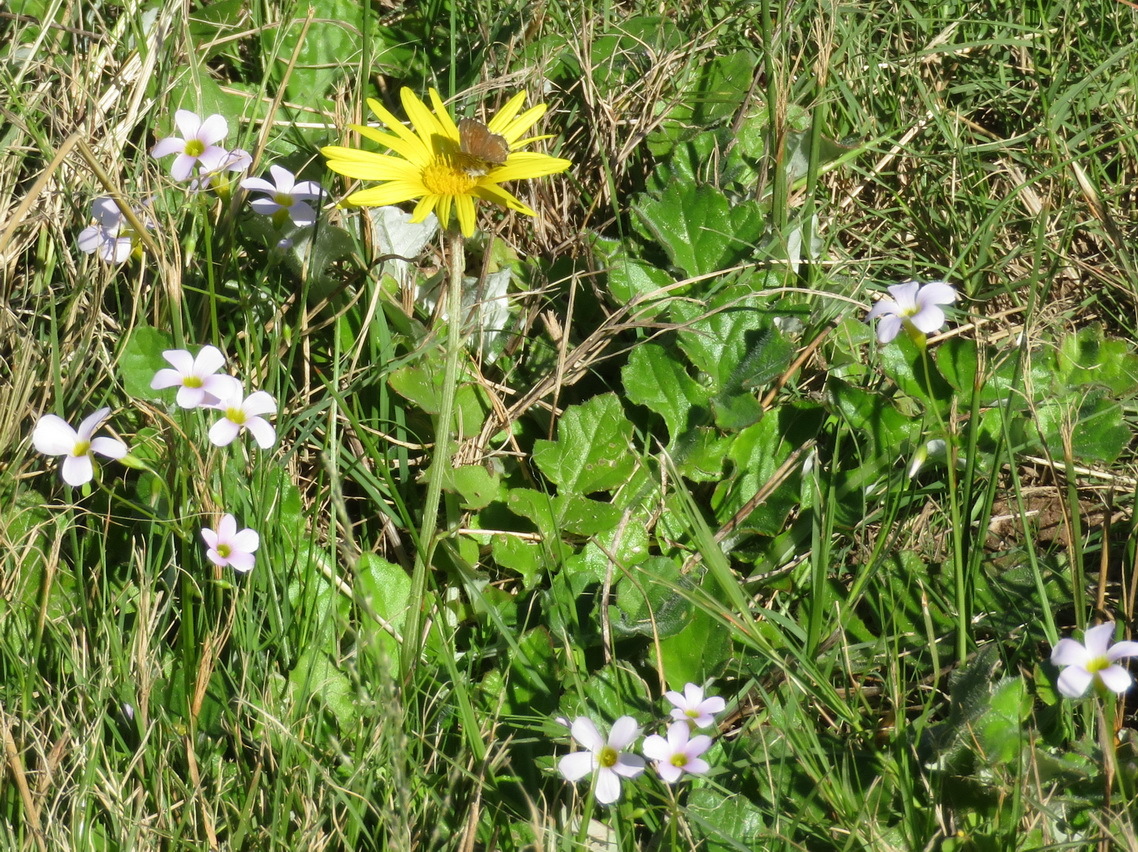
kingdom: Plantae
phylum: Tracheophyta
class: Magnoliopsida
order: Asterales
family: Asteraceae
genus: Arctotheca
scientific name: Arctotheca prostrata
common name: Capeweed
